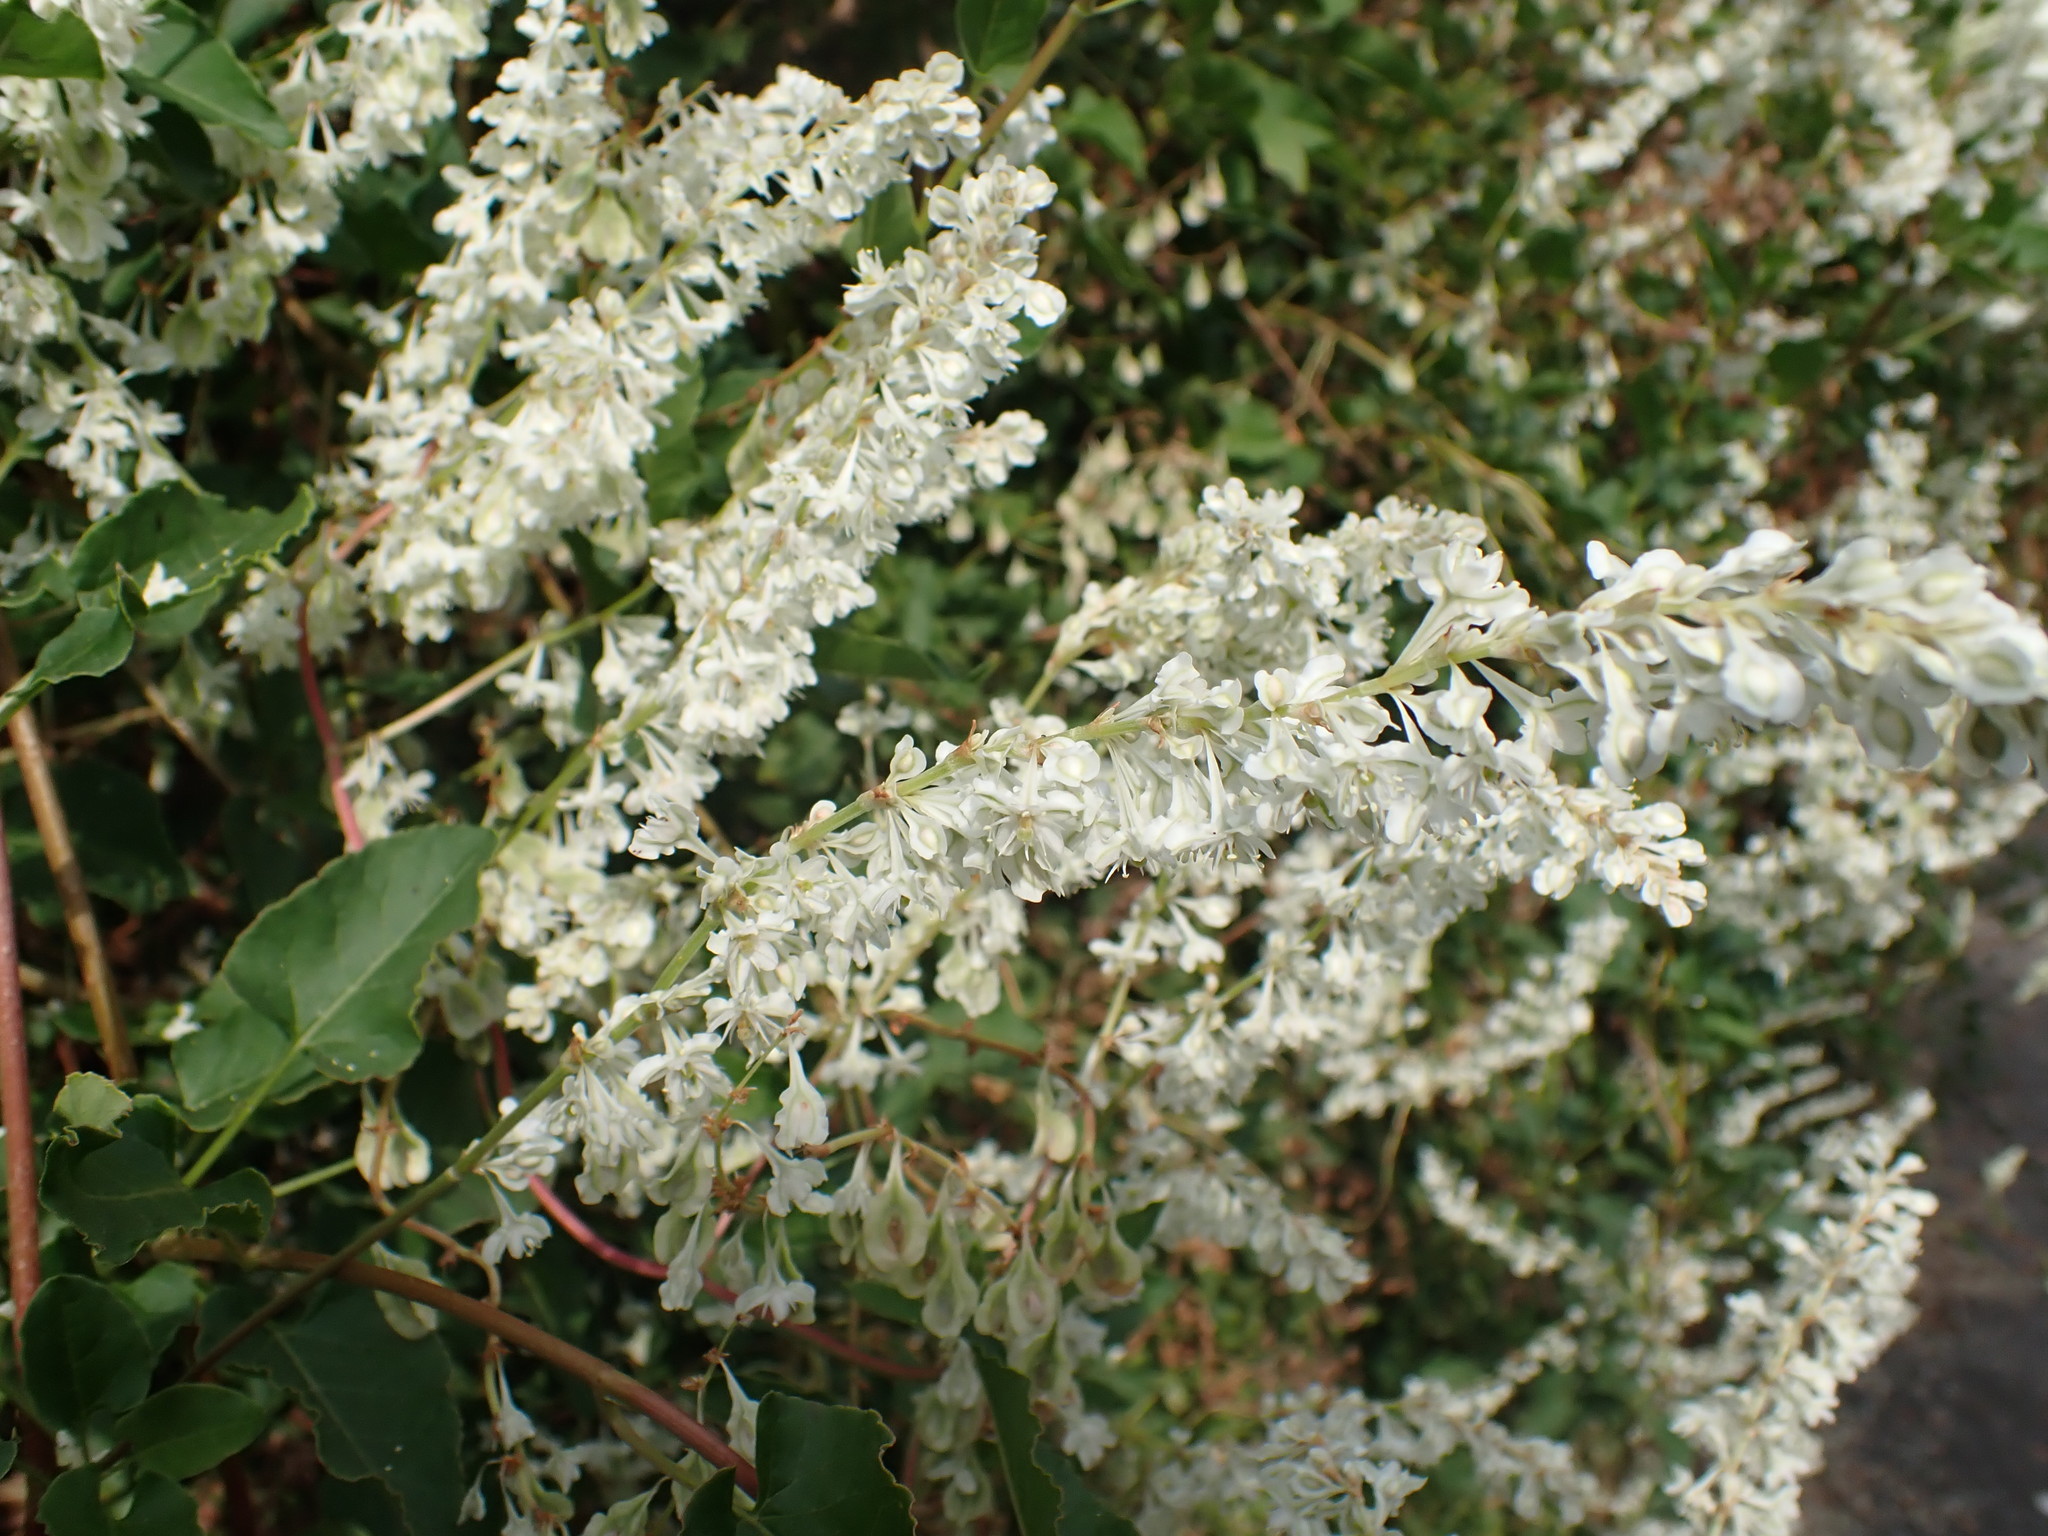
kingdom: Plantae
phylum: Tracheophyta
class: Magnoliopsida
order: Caryophyllales
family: Polygonaceae
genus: Fallopia
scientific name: Fallopia baldschuanica
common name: Russian-vine
